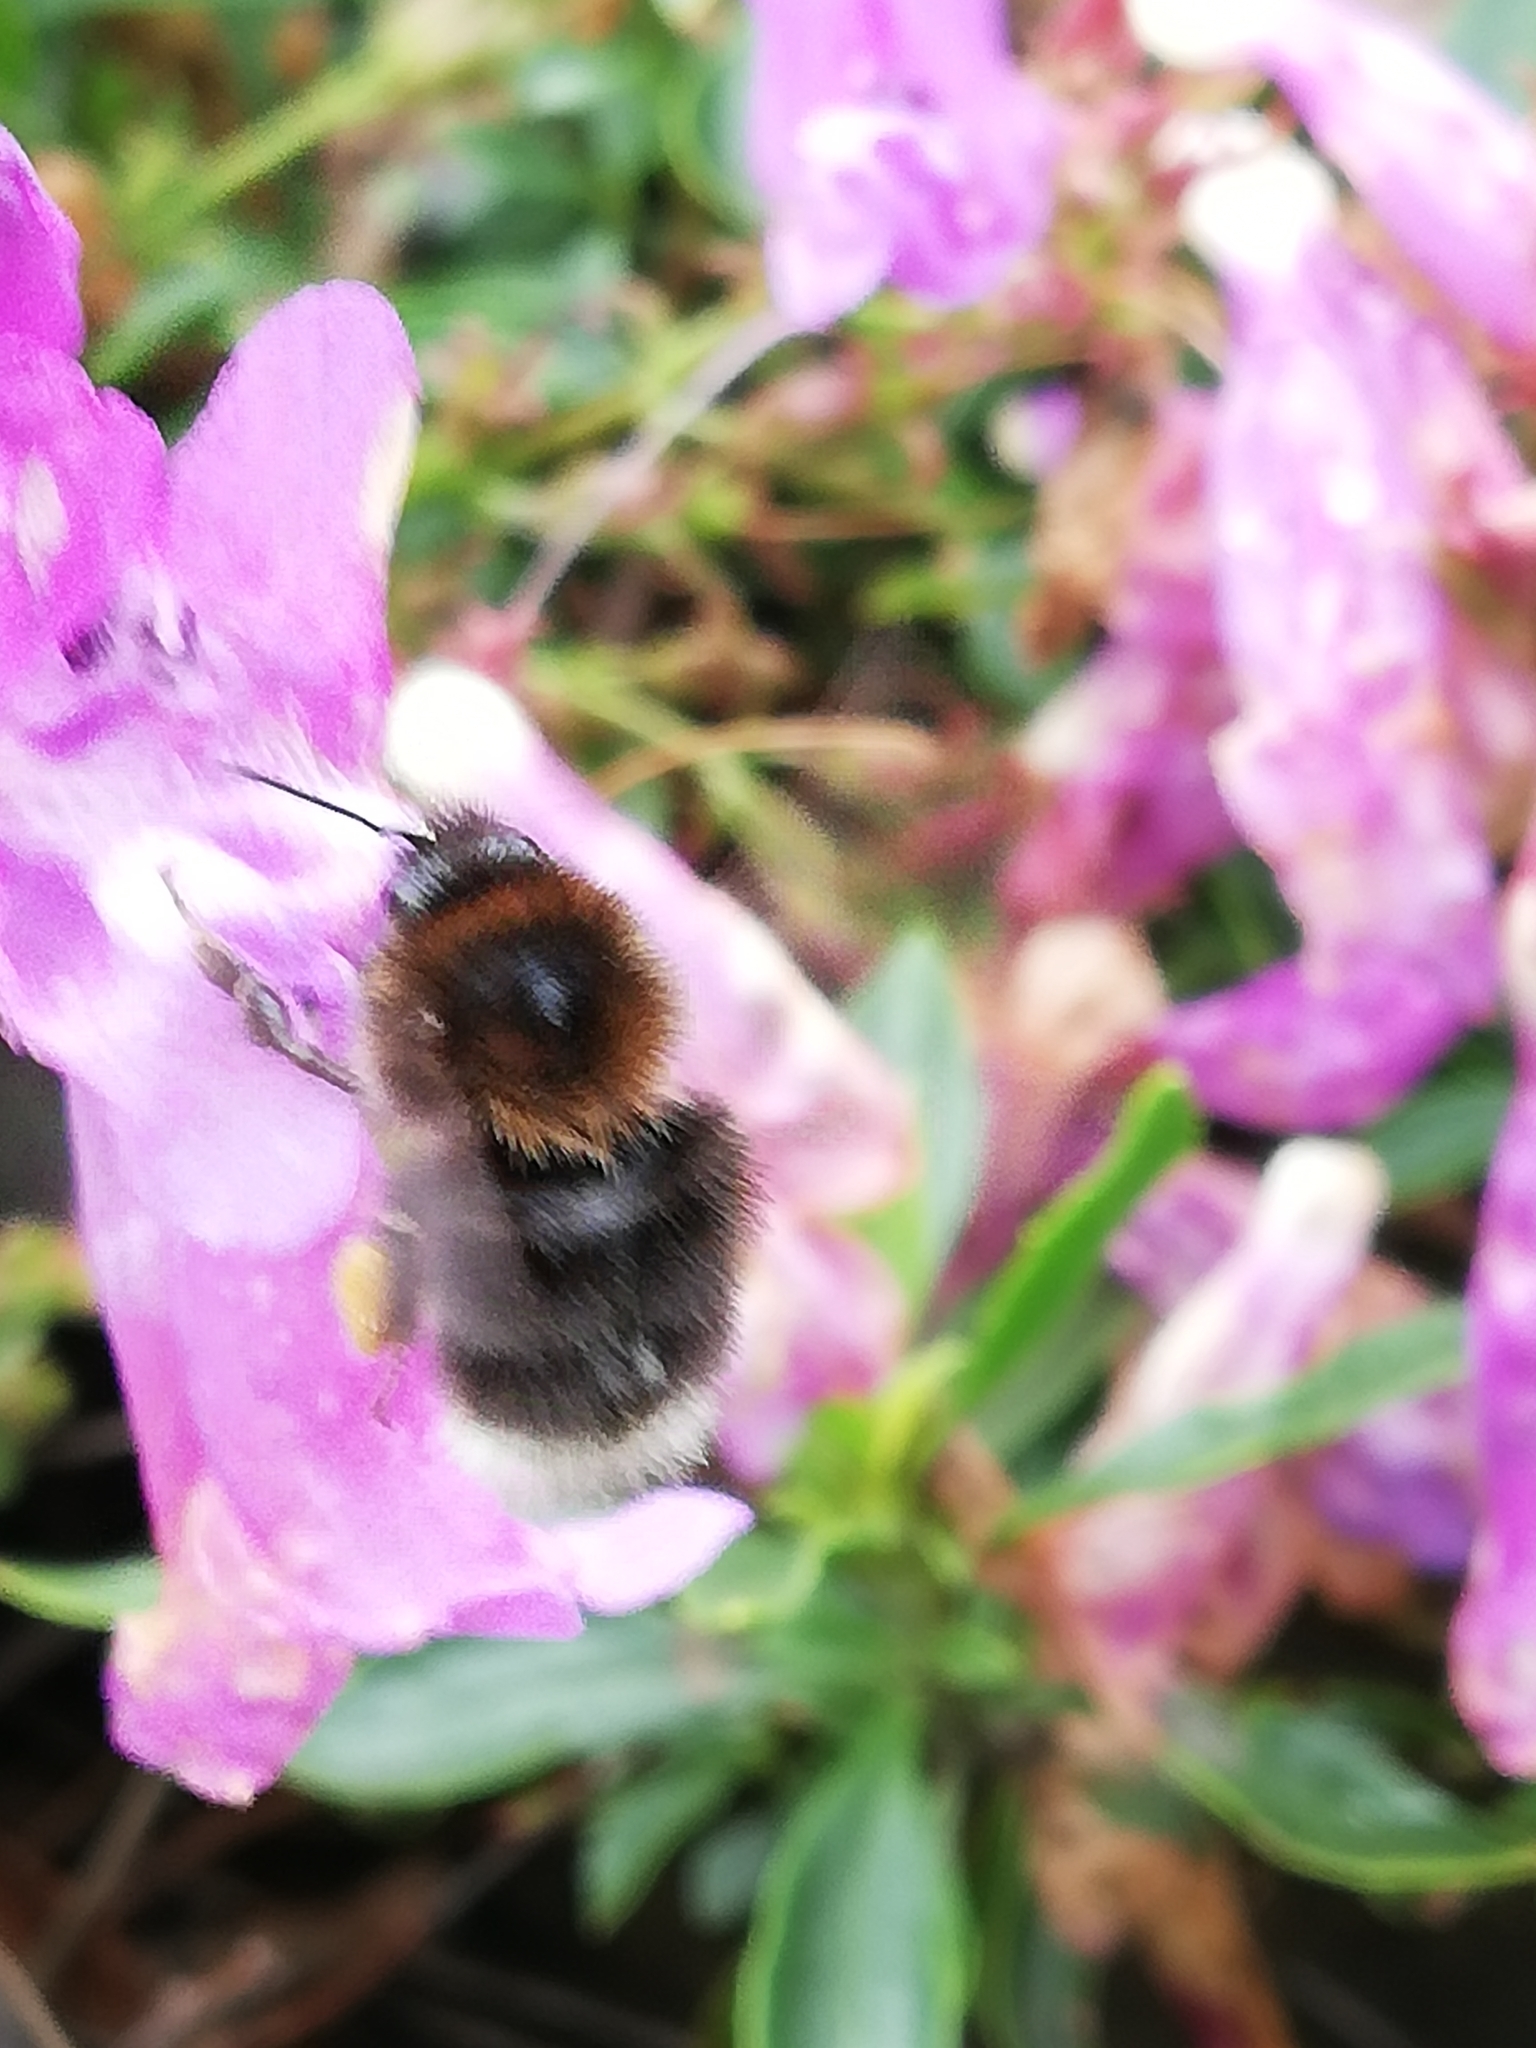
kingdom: Animalia
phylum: Arthropoda
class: Insecta
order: Hymenoptera
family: Apidae
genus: Bombus
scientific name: Bombus hypnorum
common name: New garden bumblebee
